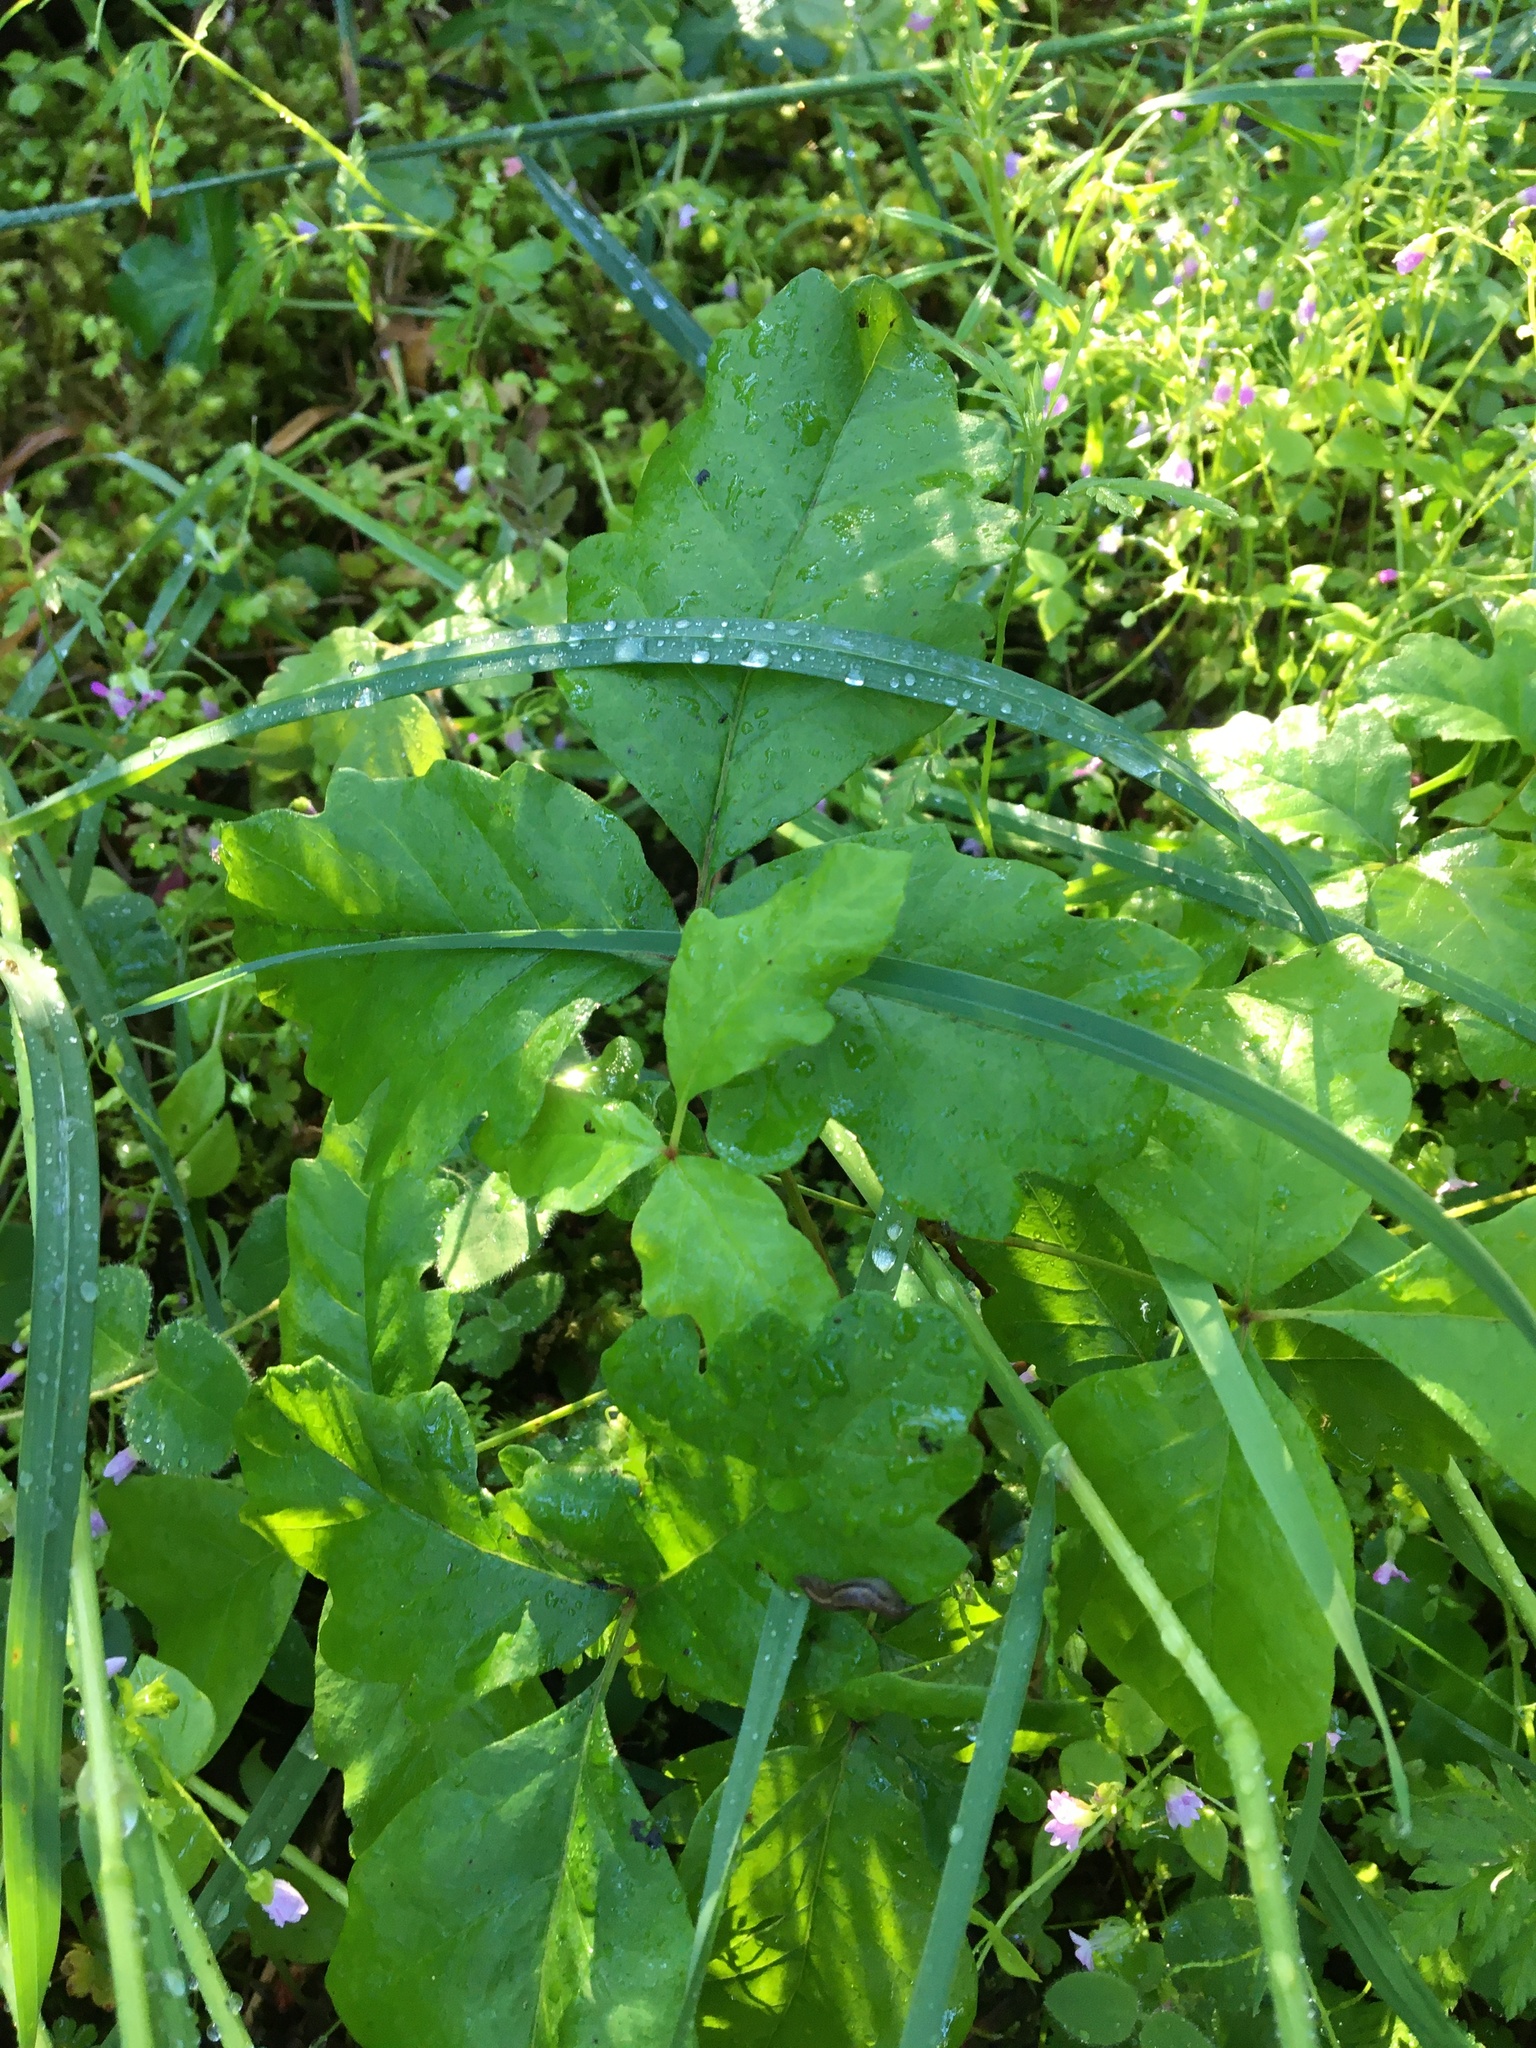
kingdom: Plantae
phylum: Tracheophyta
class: Magnoliopsida
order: Sapindales
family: Anacardiaceae
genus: Toxicodendron
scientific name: Toxicodendron diversilobum
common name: Pacific poison-oak
